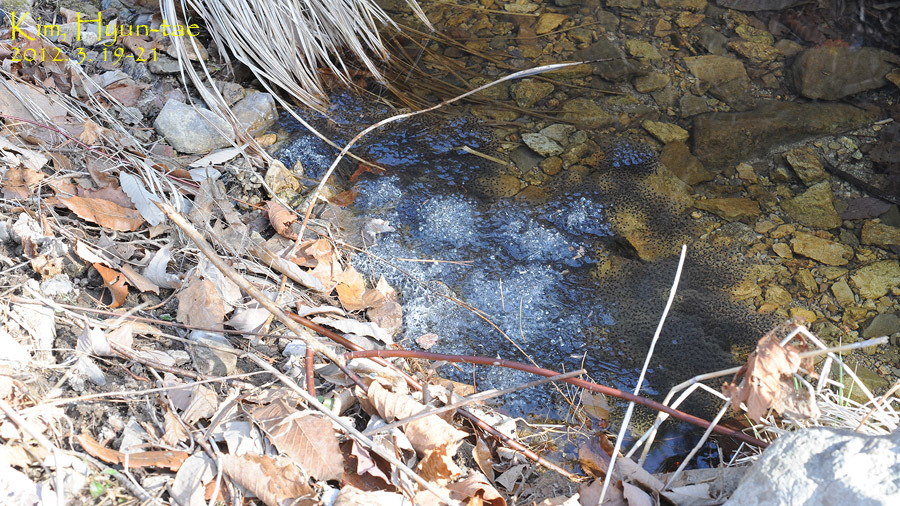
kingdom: Animalia
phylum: Chordata
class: Amphibia
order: Anura
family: Ranidae
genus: Rana
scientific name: Rana huanrenensis
